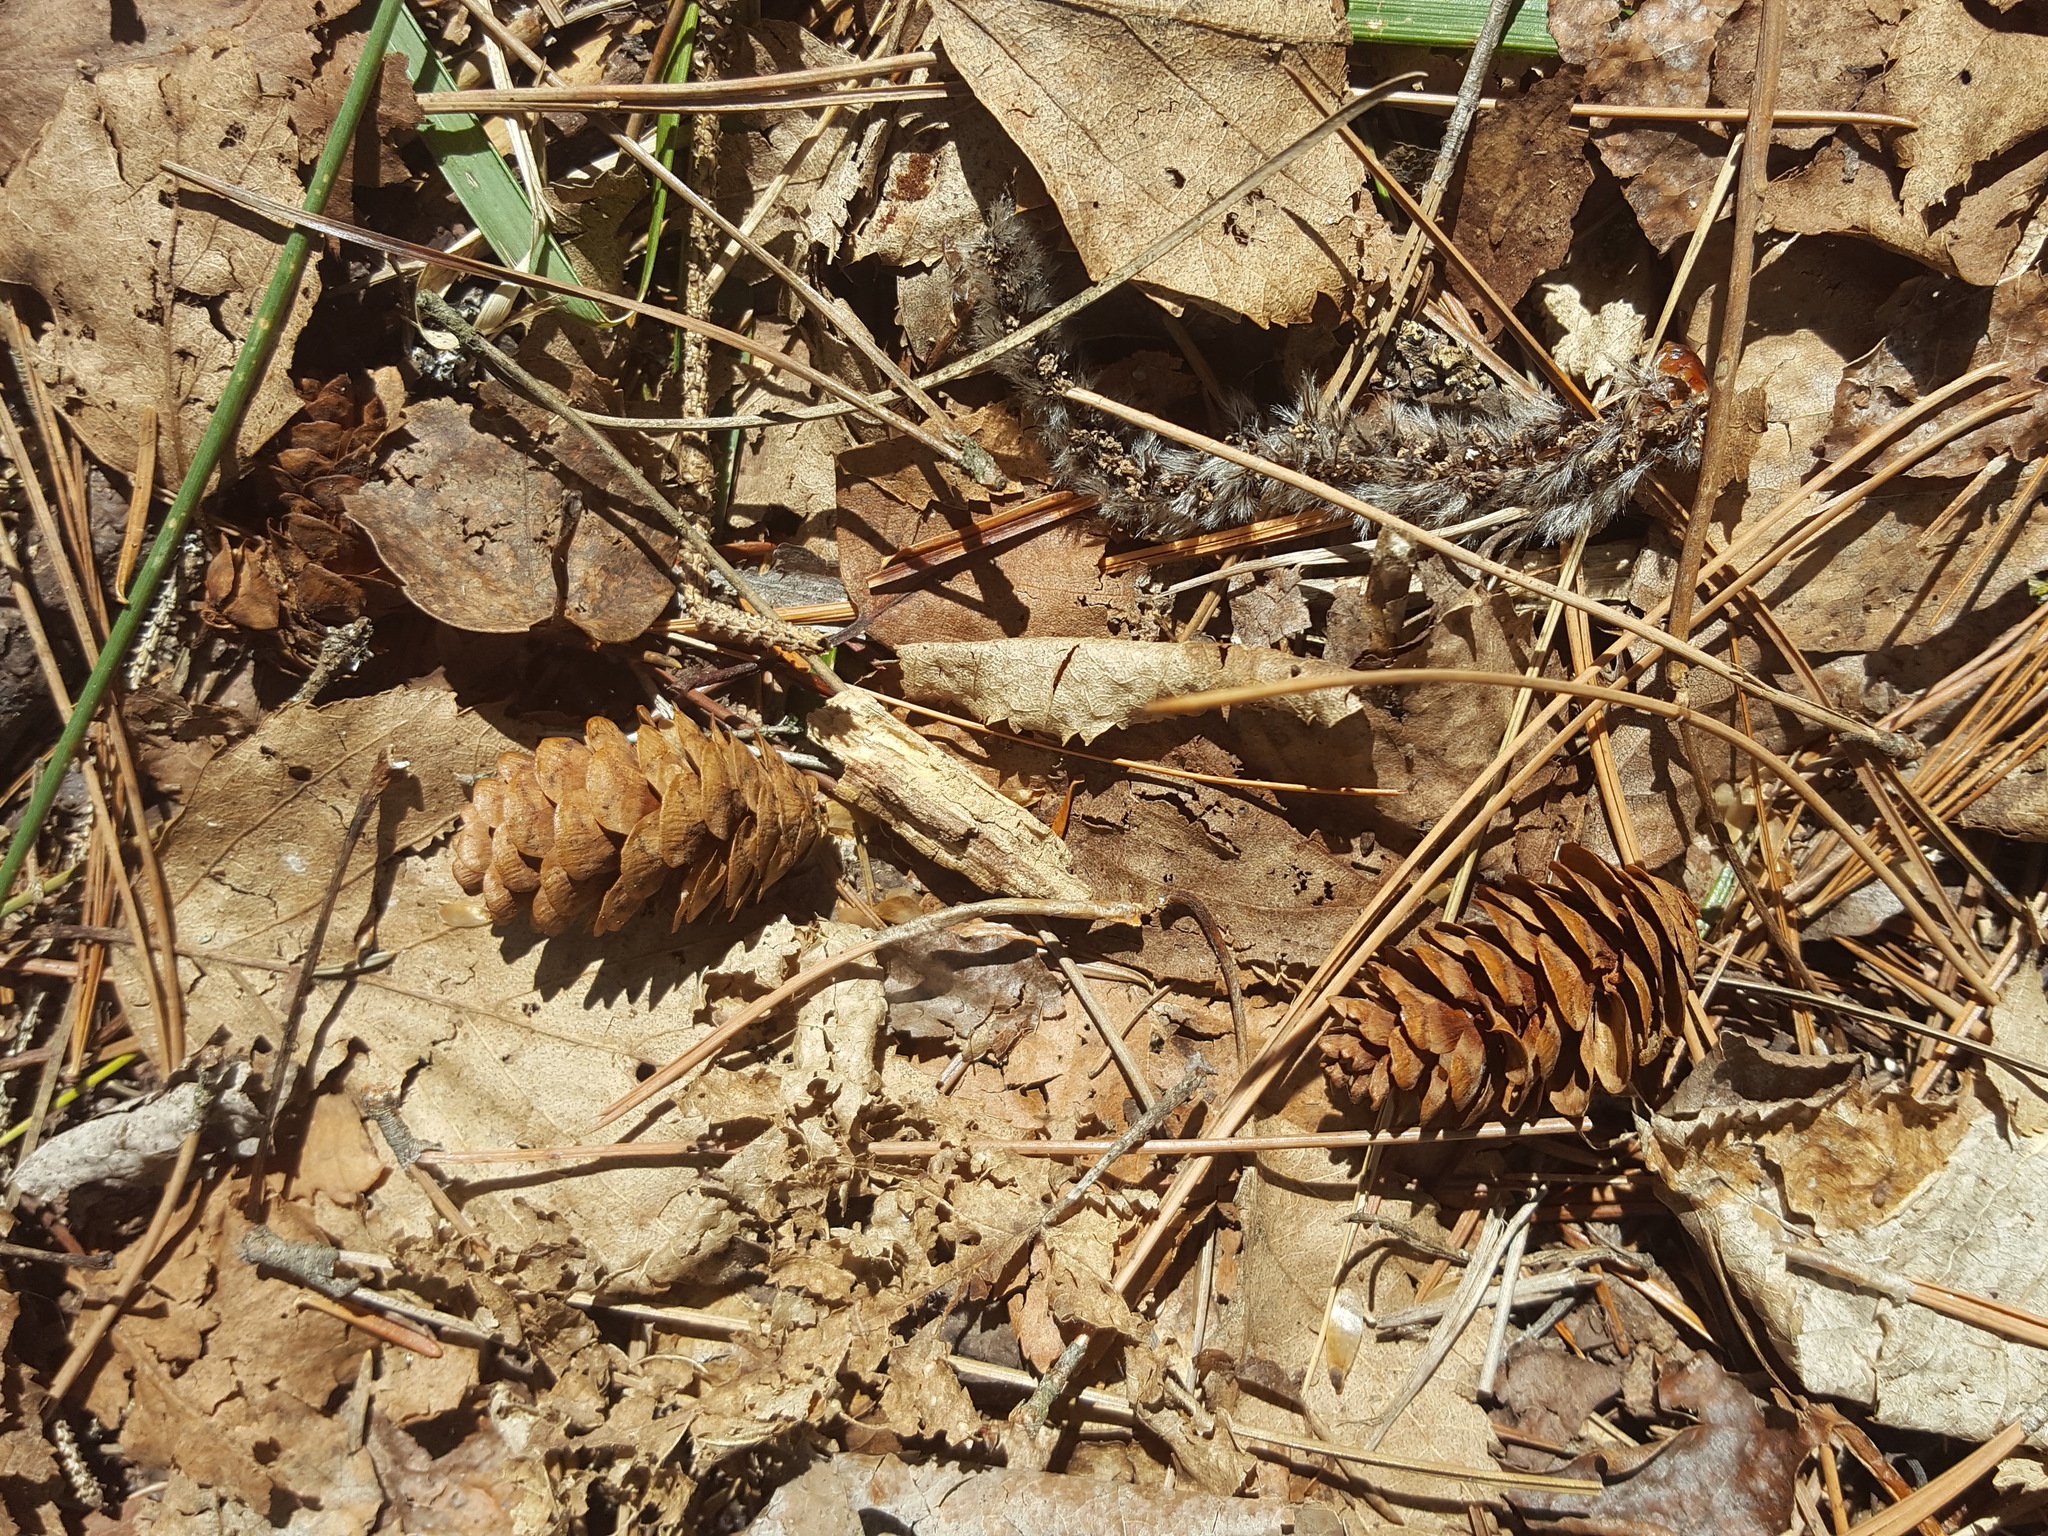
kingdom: Plantae
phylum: Tracheophyta
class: Pinopsida
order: Pinales
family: Pinaceae
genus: Picea
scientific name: Picea glauca
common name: White spruce
